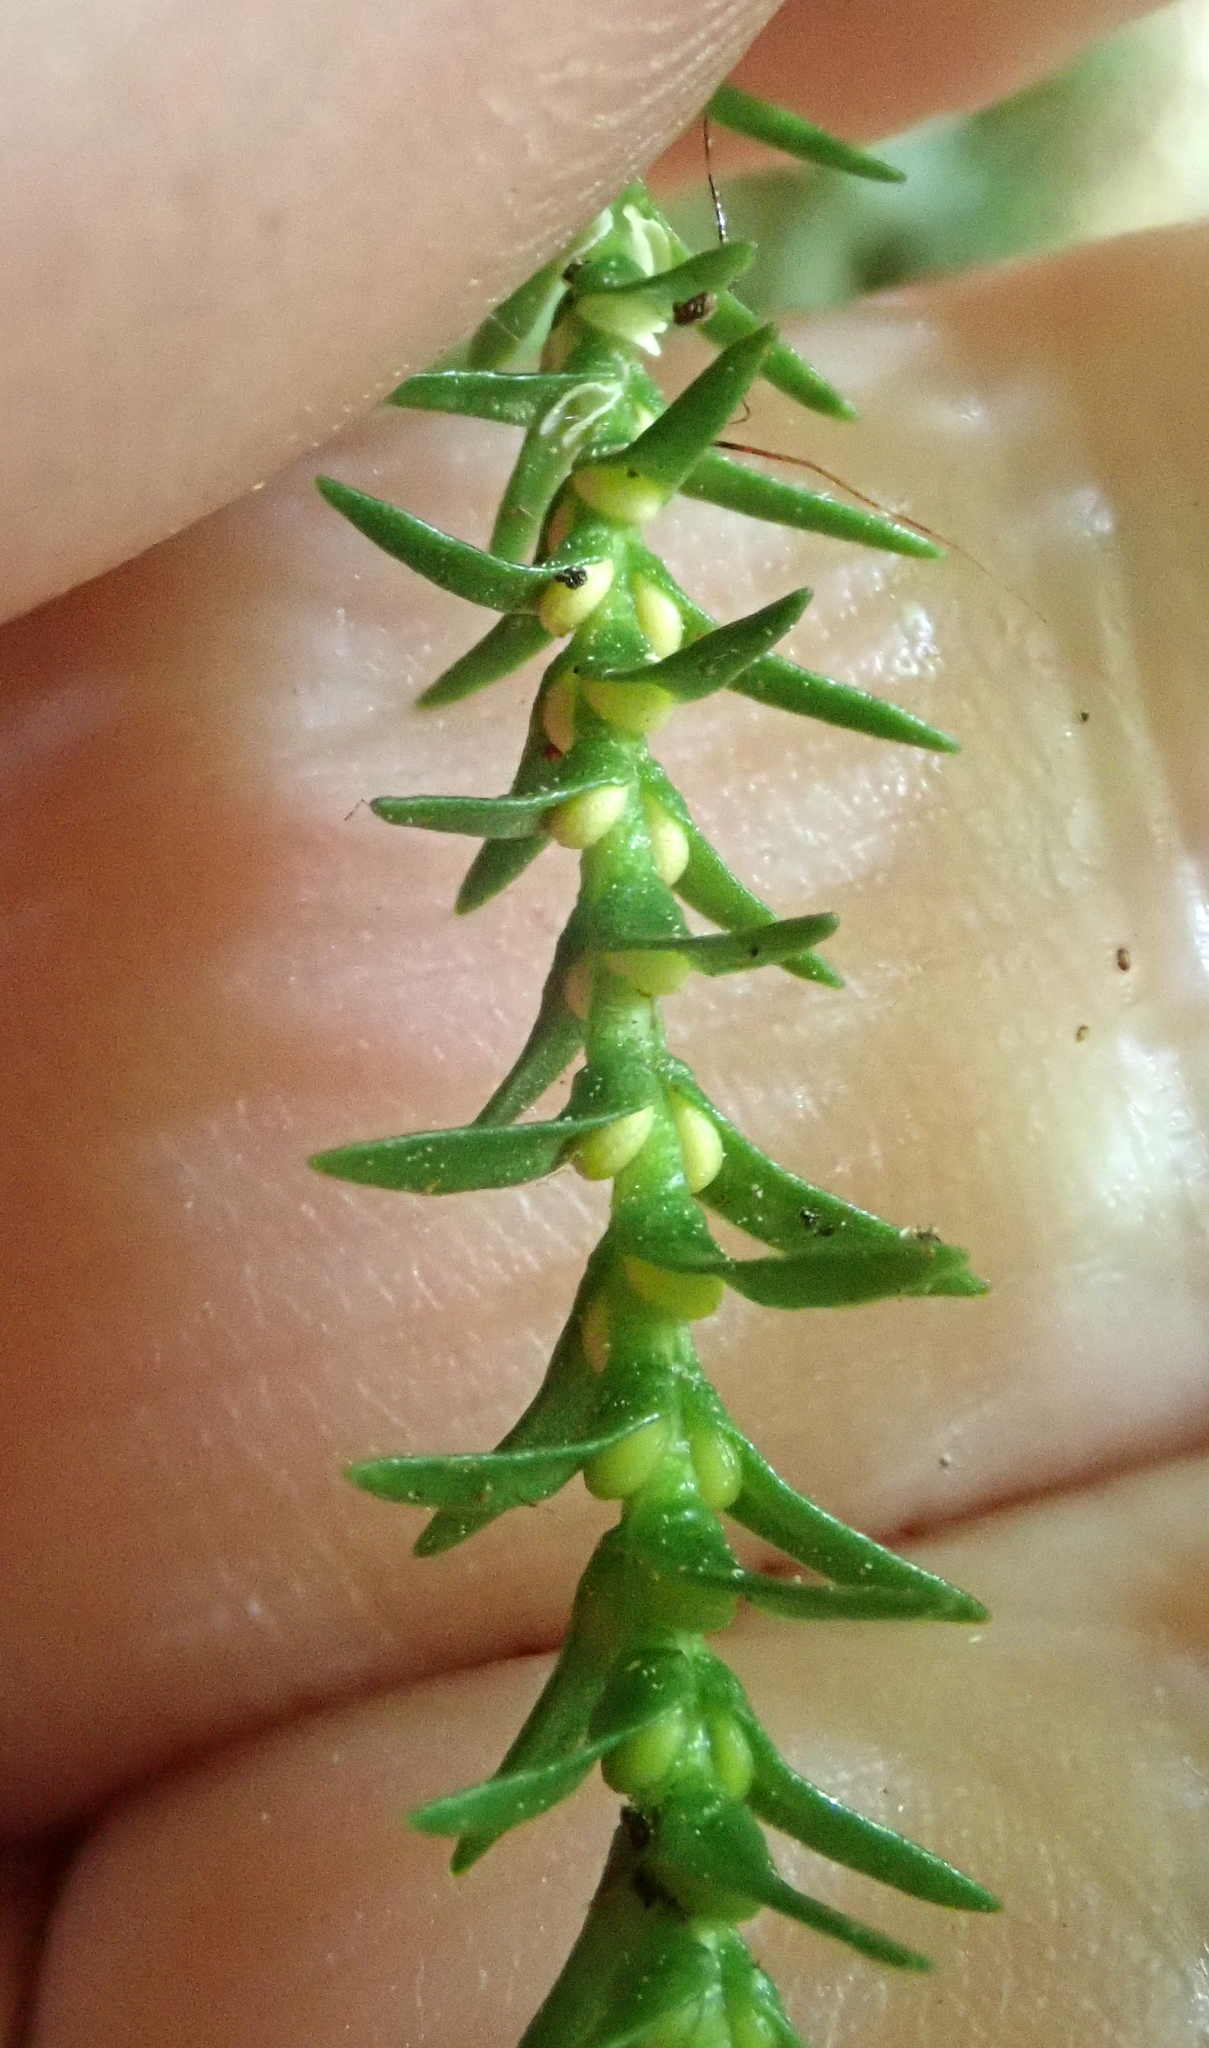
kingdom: Plantae
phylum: Tracheophyta
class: Lycopodiopsida
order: Lycopodiales
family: Lycopodiaceae
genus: Phlegmariurus
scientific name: Phlegmariurus varius
